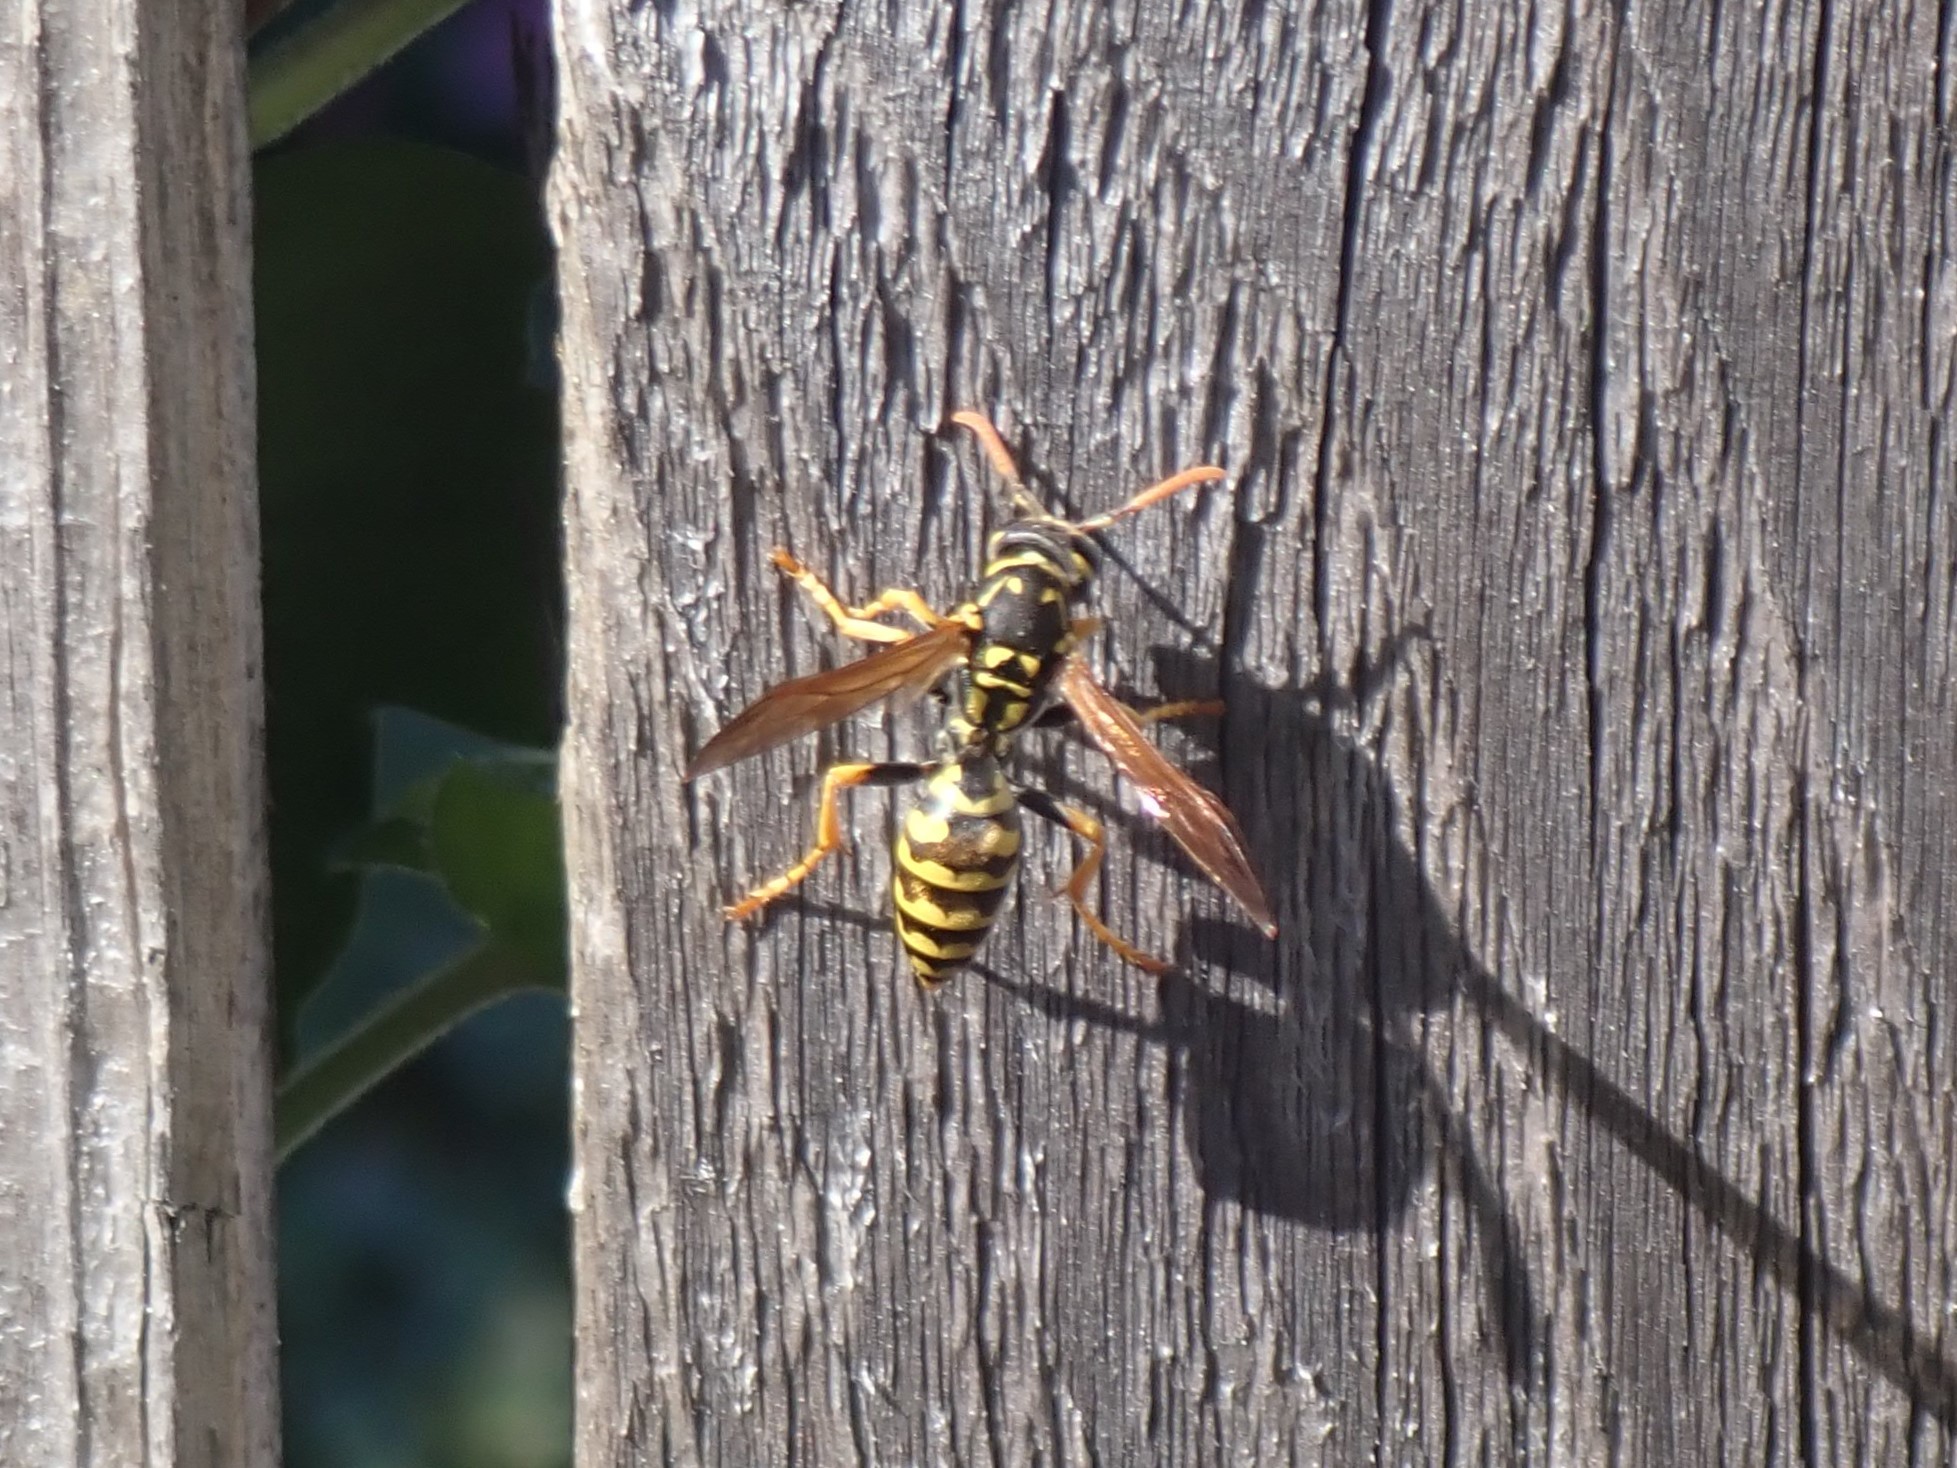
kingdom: Animalia
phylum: Arthropoda
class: Insecta
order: Hymenoptera
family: Eumenidae
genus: Polistes
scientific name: Polistes dominula
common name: Paper wasp
